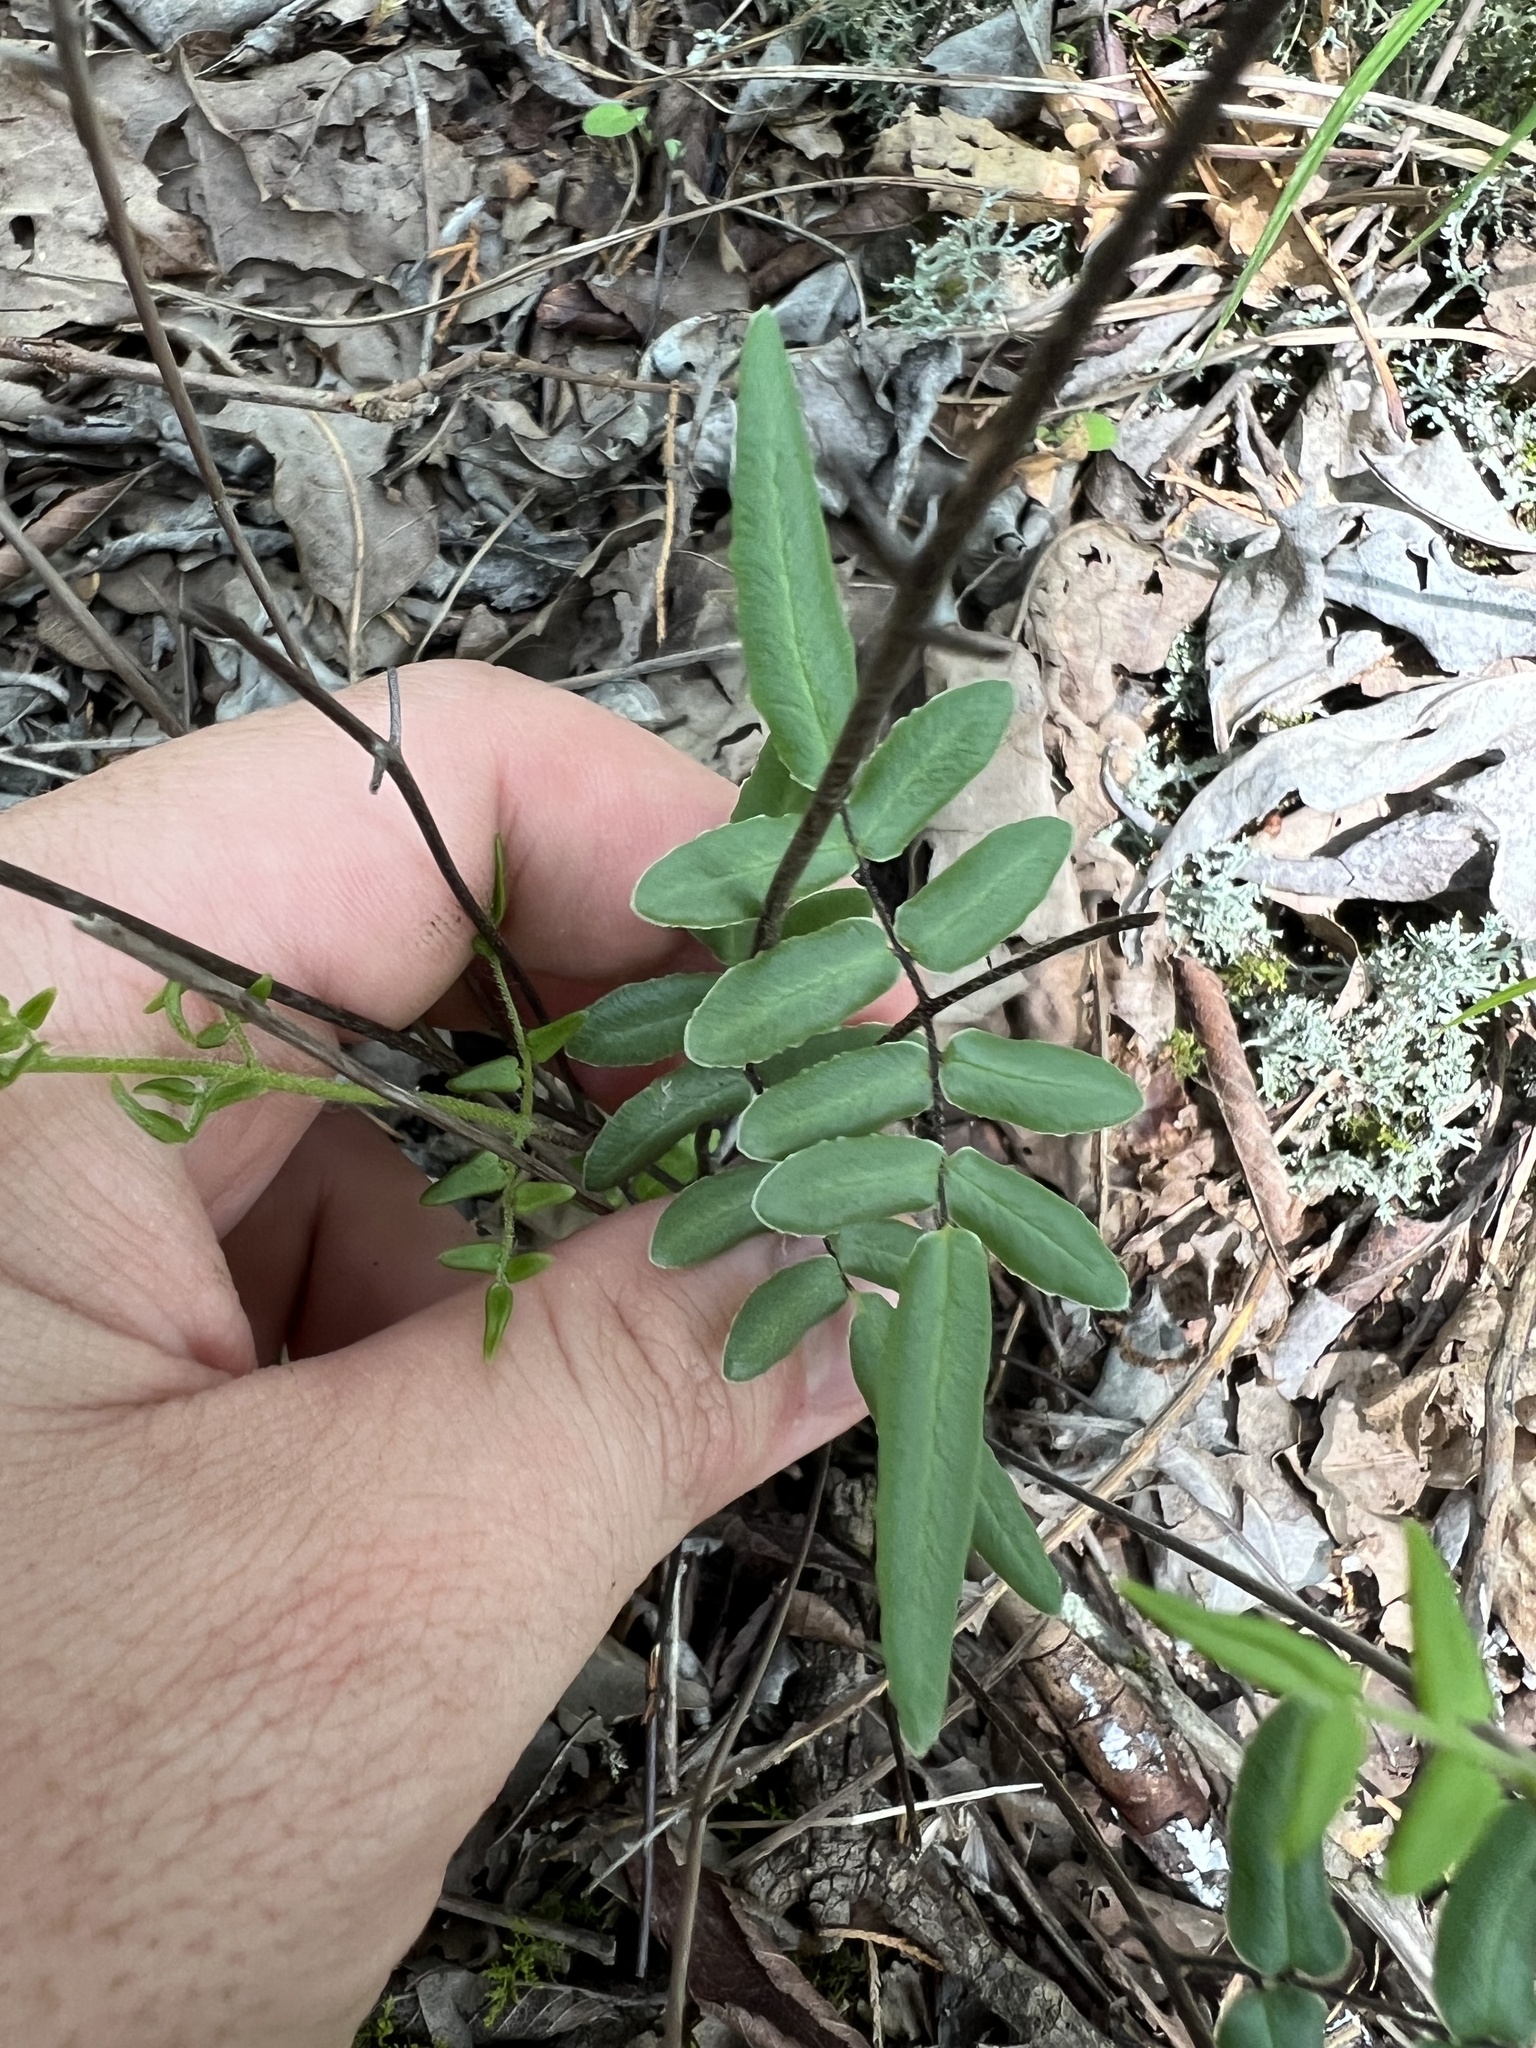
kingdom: Plantae
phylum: Tracheophyta
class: Polypodiopsida
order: Polypodiales
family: Pteridaceae
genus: Pellaea
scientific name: Pellaea atropurpurea
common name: Hairy cliffbrake
